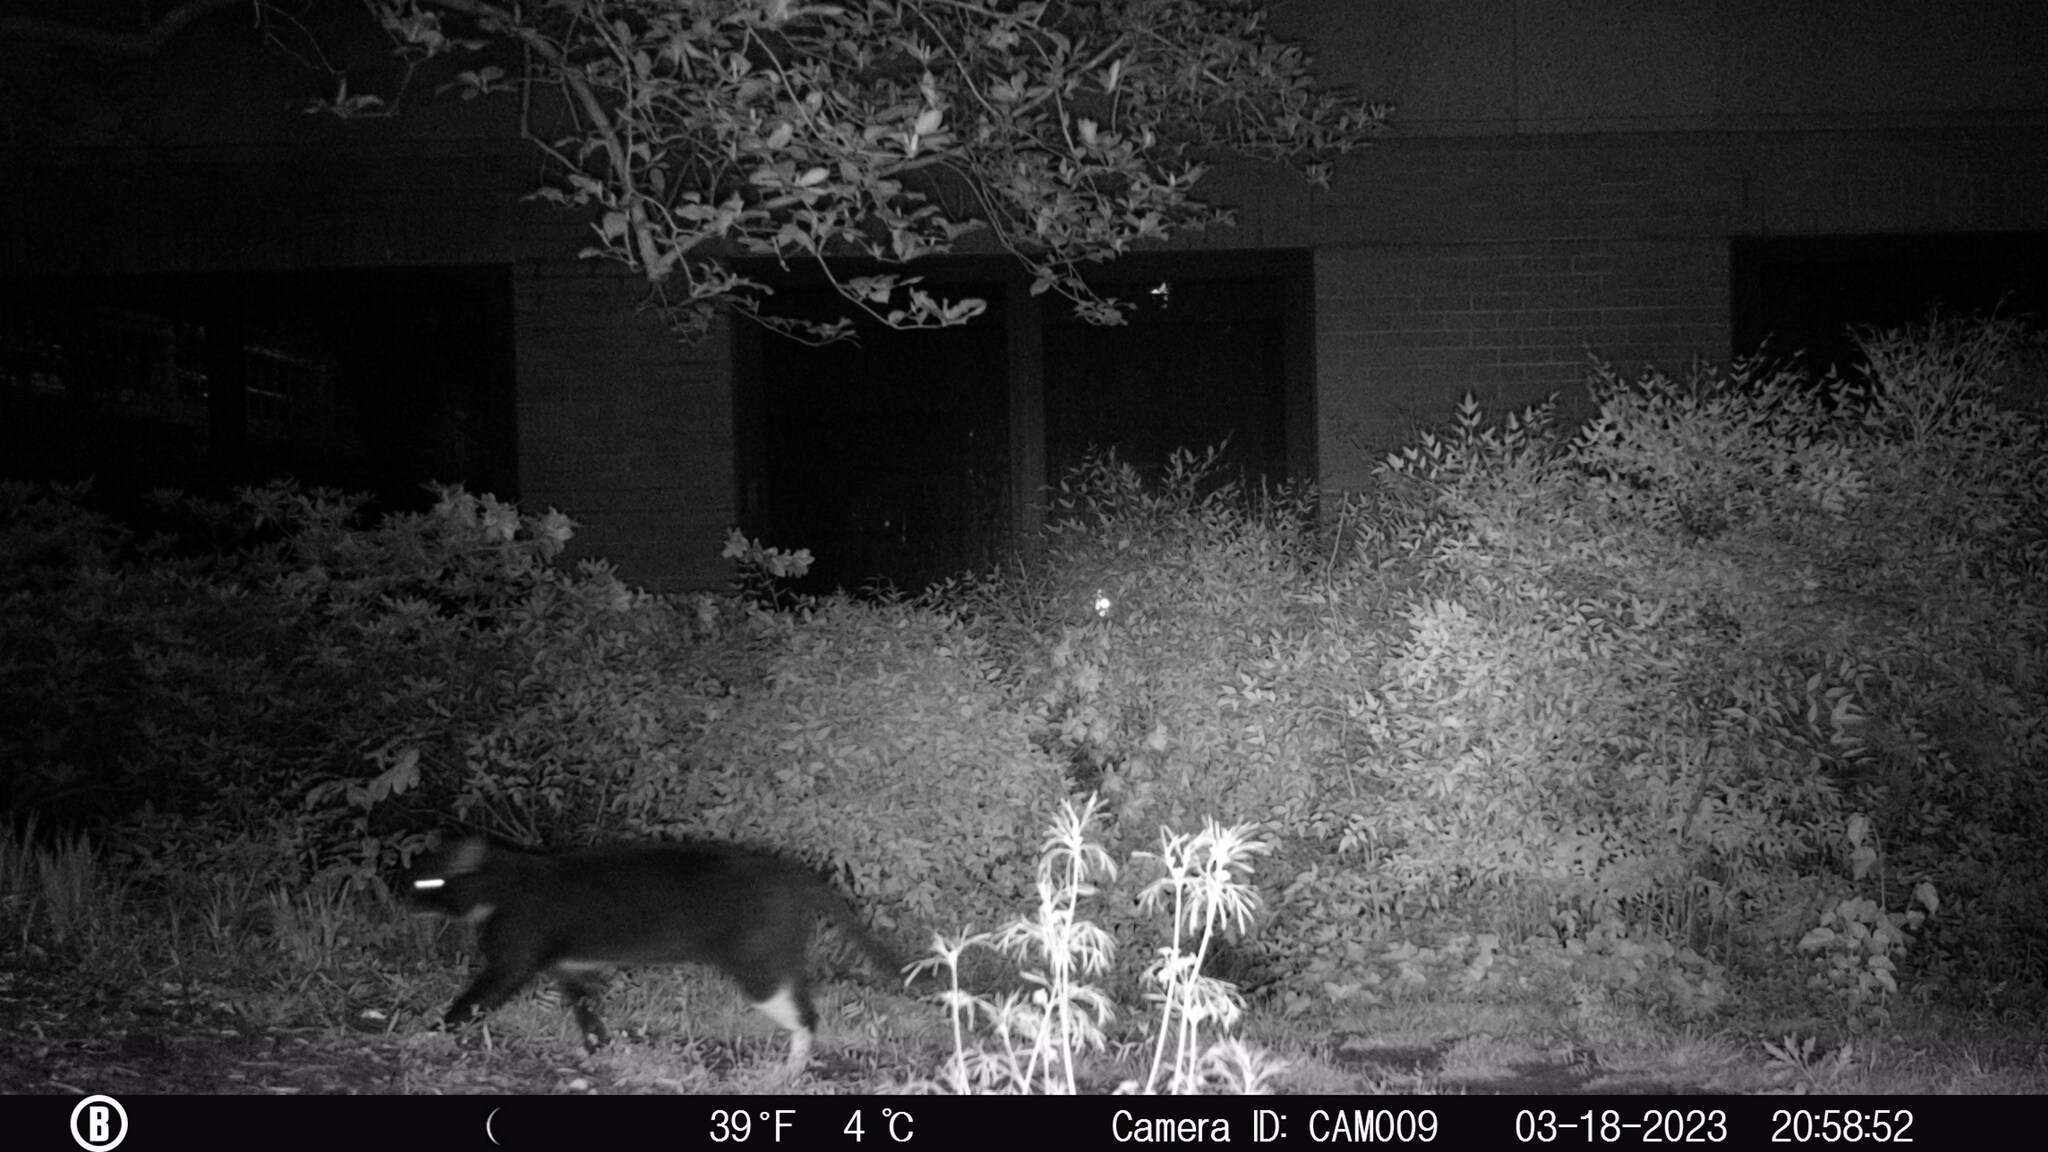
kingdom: Animalia
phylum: Chordata
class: Mammalia
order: Carnivora
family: Felidae
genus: Felis
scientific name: Felis catus
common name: Domestic cat
